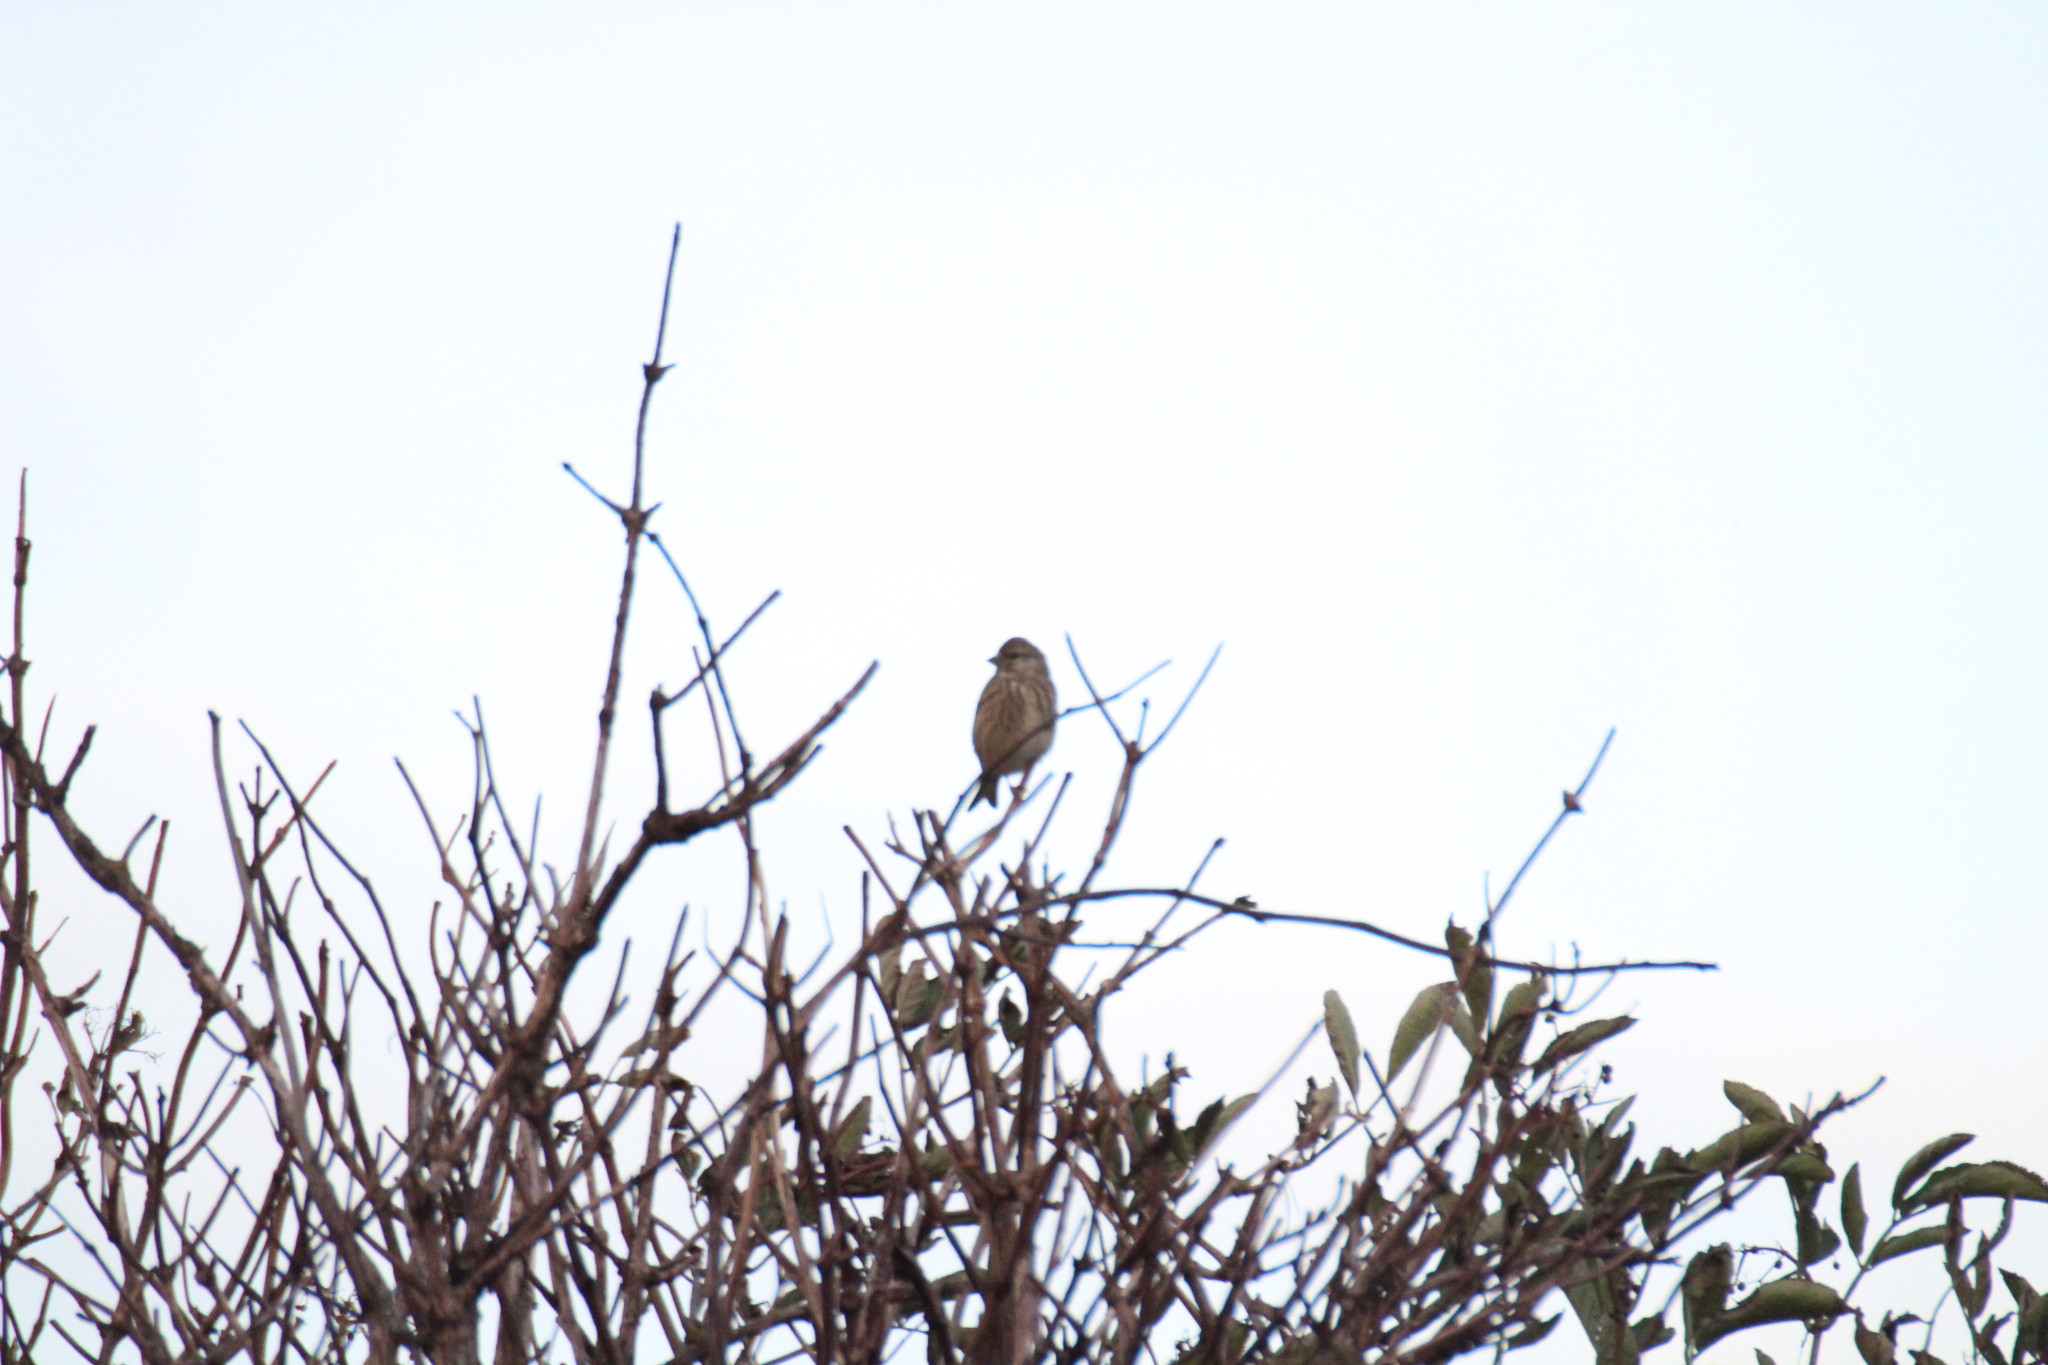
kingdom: Animalia
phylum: Chordata
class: Aves
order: Passeriformes
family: Fringillidae
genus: Linaria
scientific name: Linaria cannabina
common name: Common linnet
